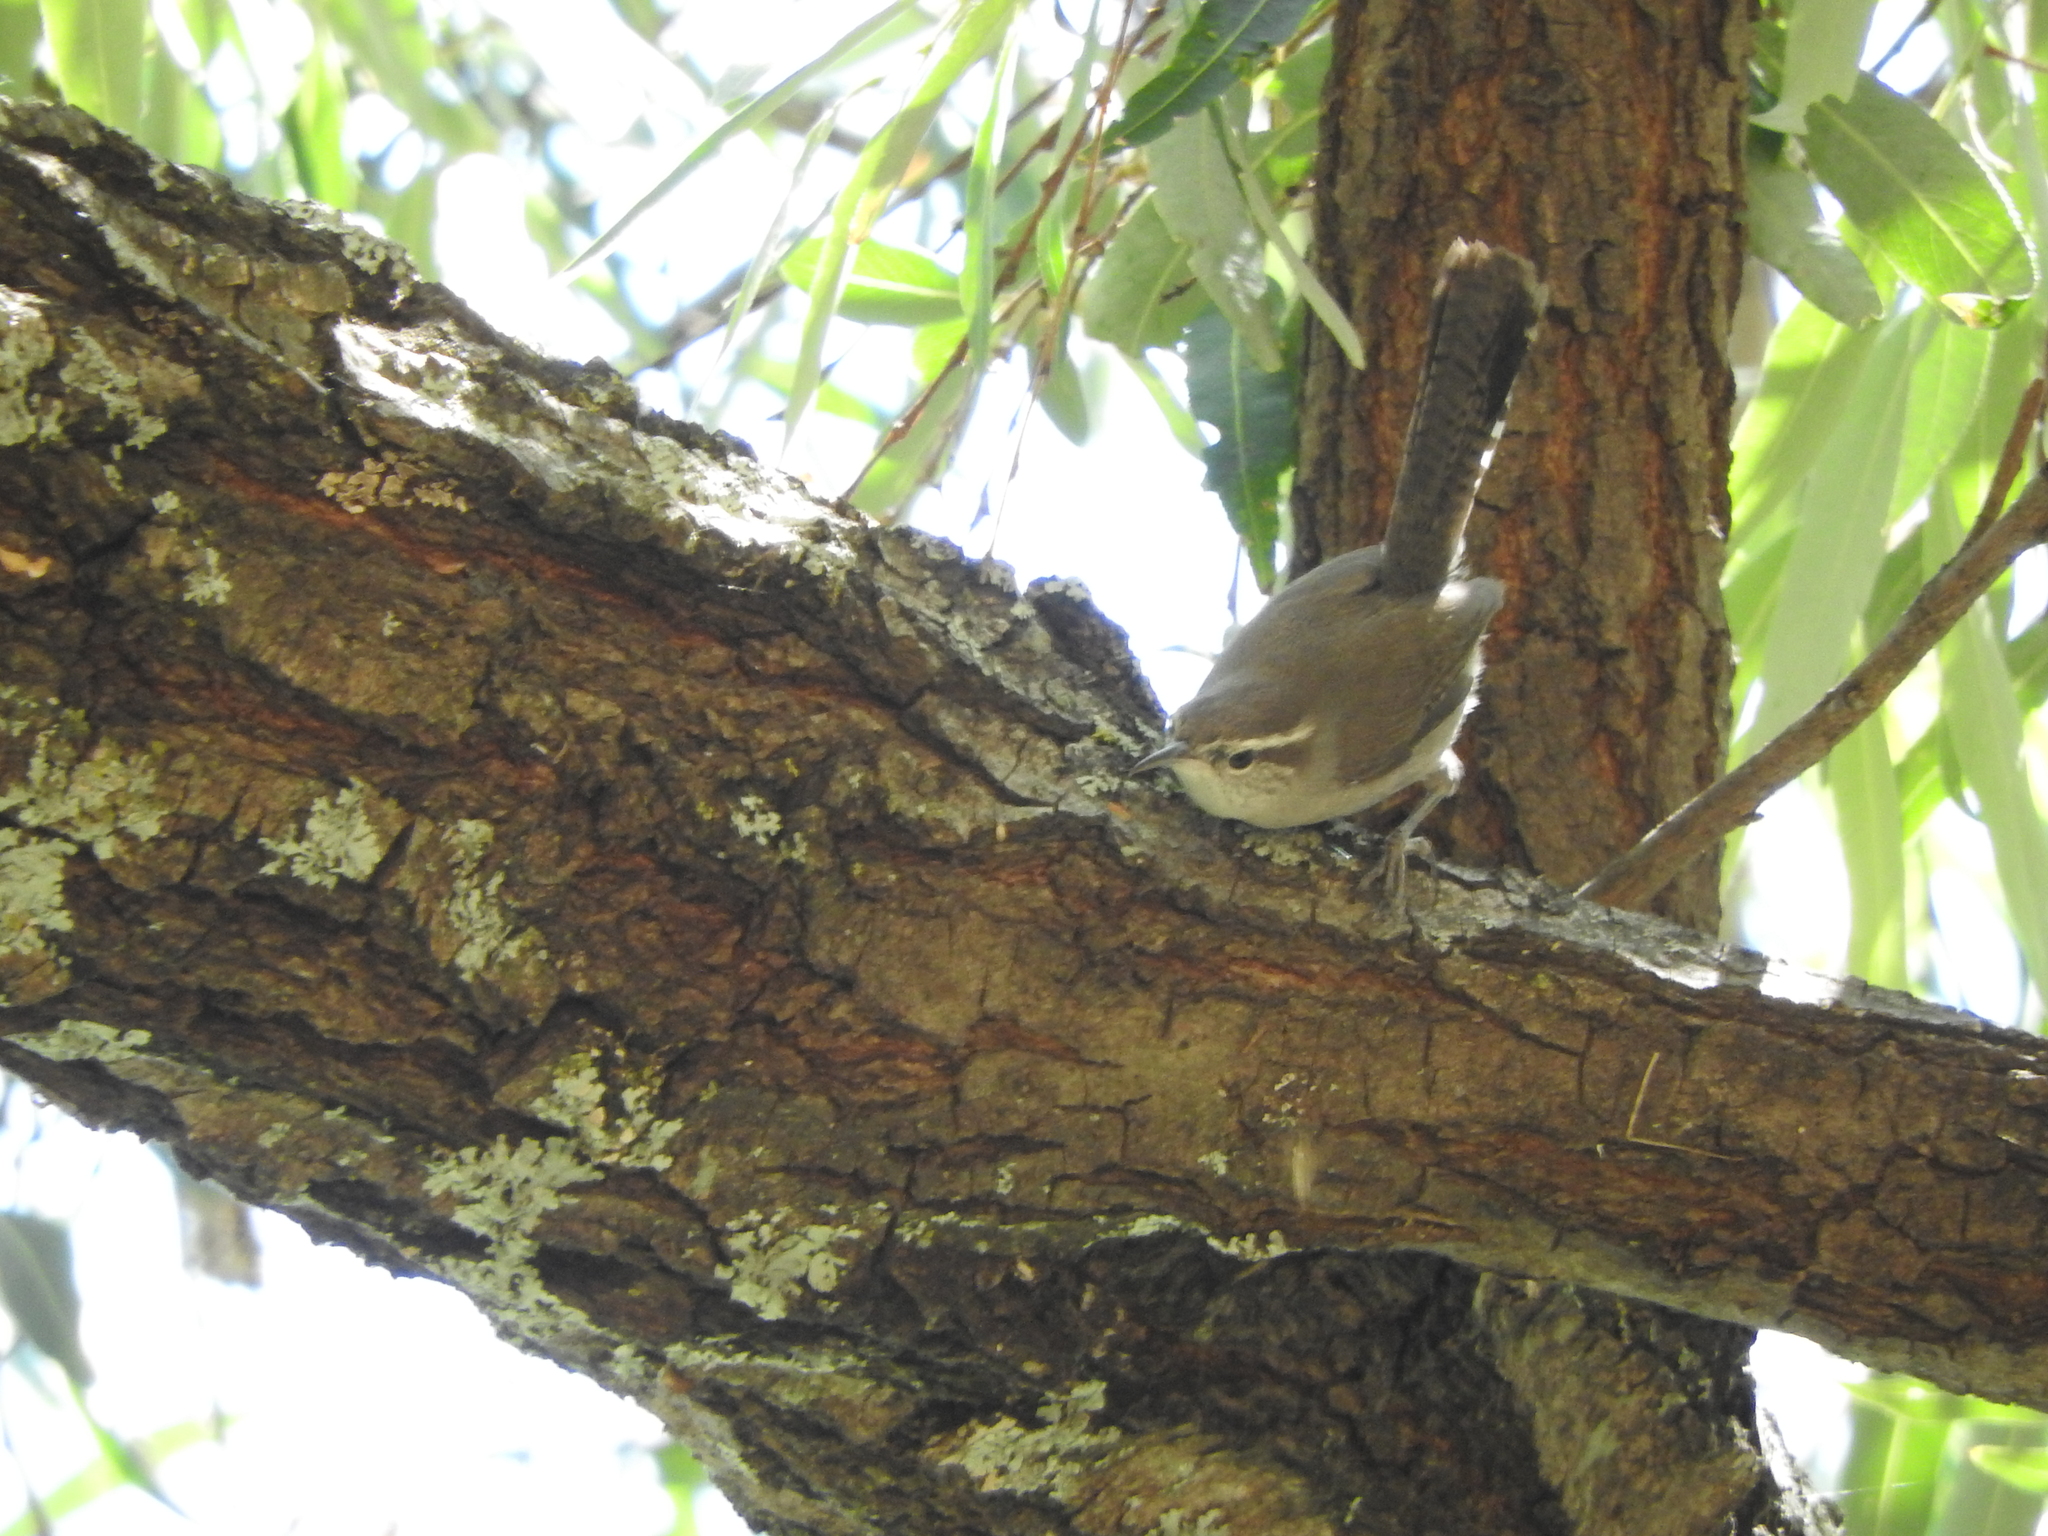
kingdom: Animalia
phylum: Chordata
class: Aves
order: Passeriformes
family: Troglodytidae
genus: Thryomanes
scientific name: Thryomanes bewickii
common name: Bewick's wren
